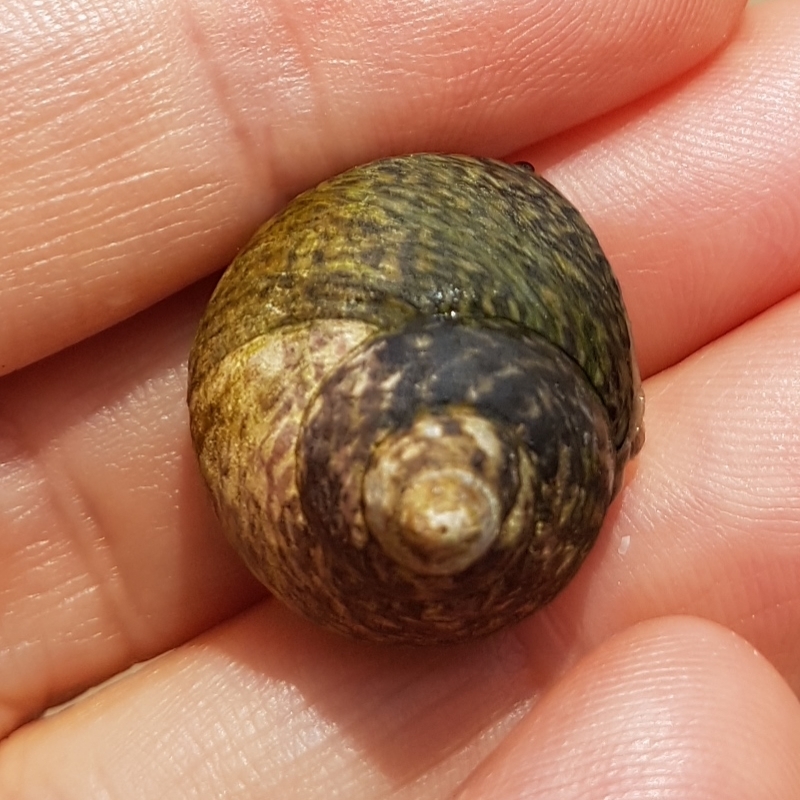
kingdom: Animalia
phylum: Mollusca
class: Gastropoda
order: Trochida
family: Trochidae
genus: Phorcus
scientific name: Phorcus lineatus
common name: Toothed top shell
